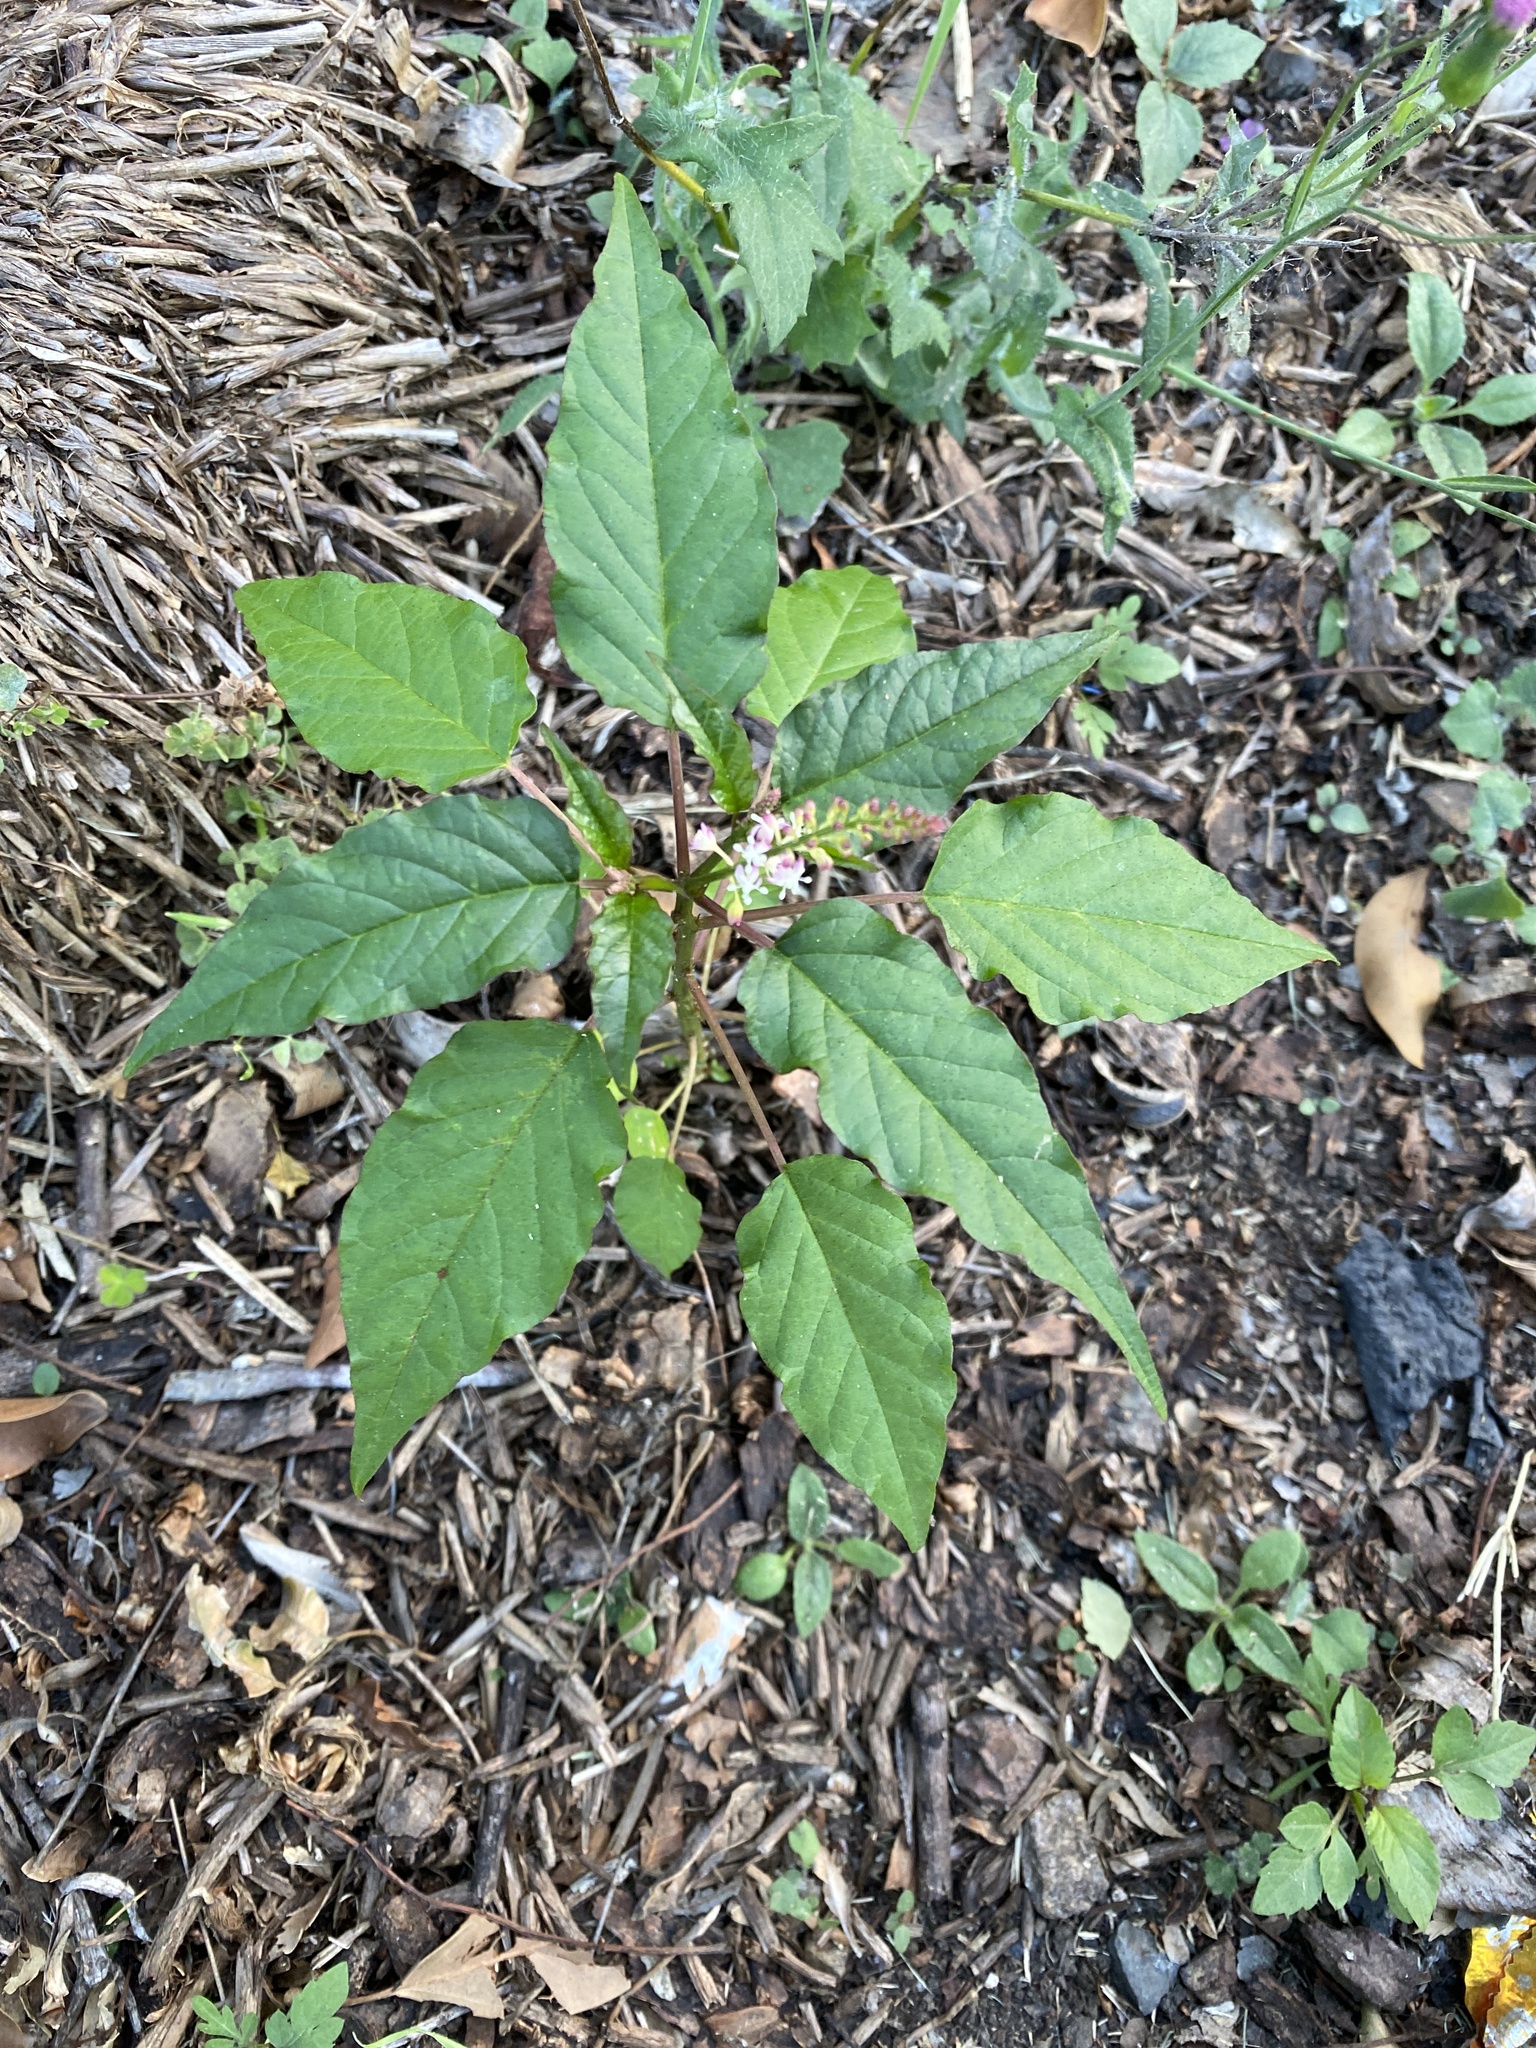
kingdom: Plantae
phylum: Tracheophyta
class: Magnoliopsida
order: Caryophyllales
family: Phytolaccaceae
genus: Rivina
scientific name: Rivina humilis
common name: Rougeplant
